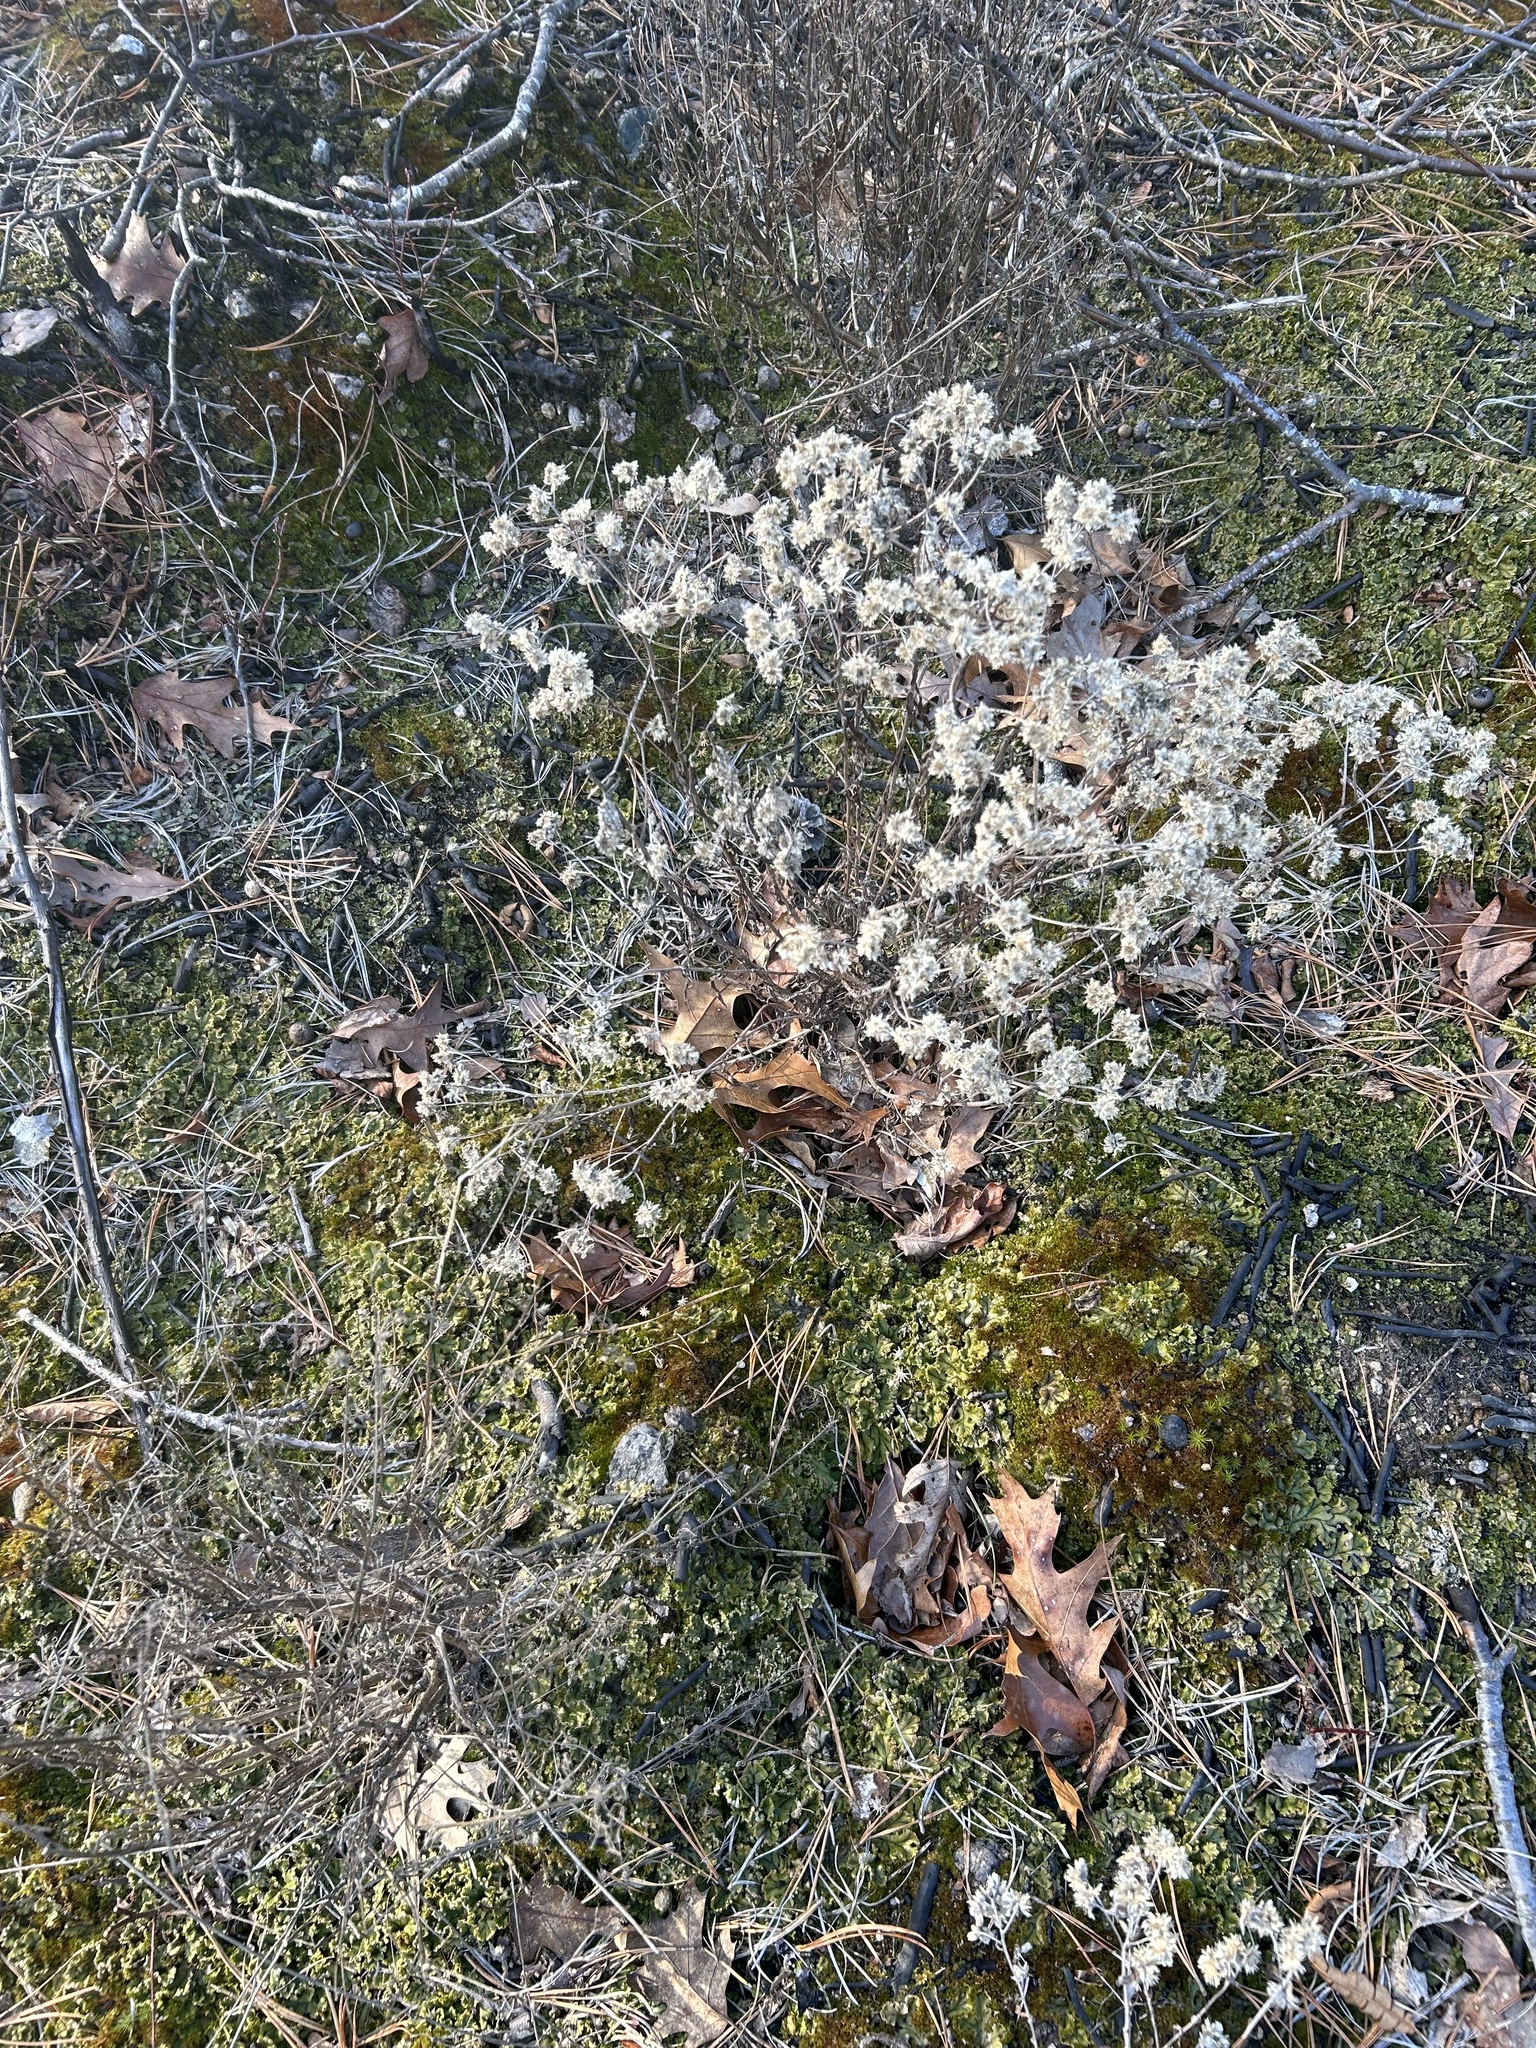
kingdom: Plantae
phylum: Tracheophyta
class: Magnoliopsida
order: Asterales
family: Asteraceae
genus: Pseudognaphalium
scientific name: Pseudognaphalium obtusifolium
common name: Eastern rabbit-tobacco
